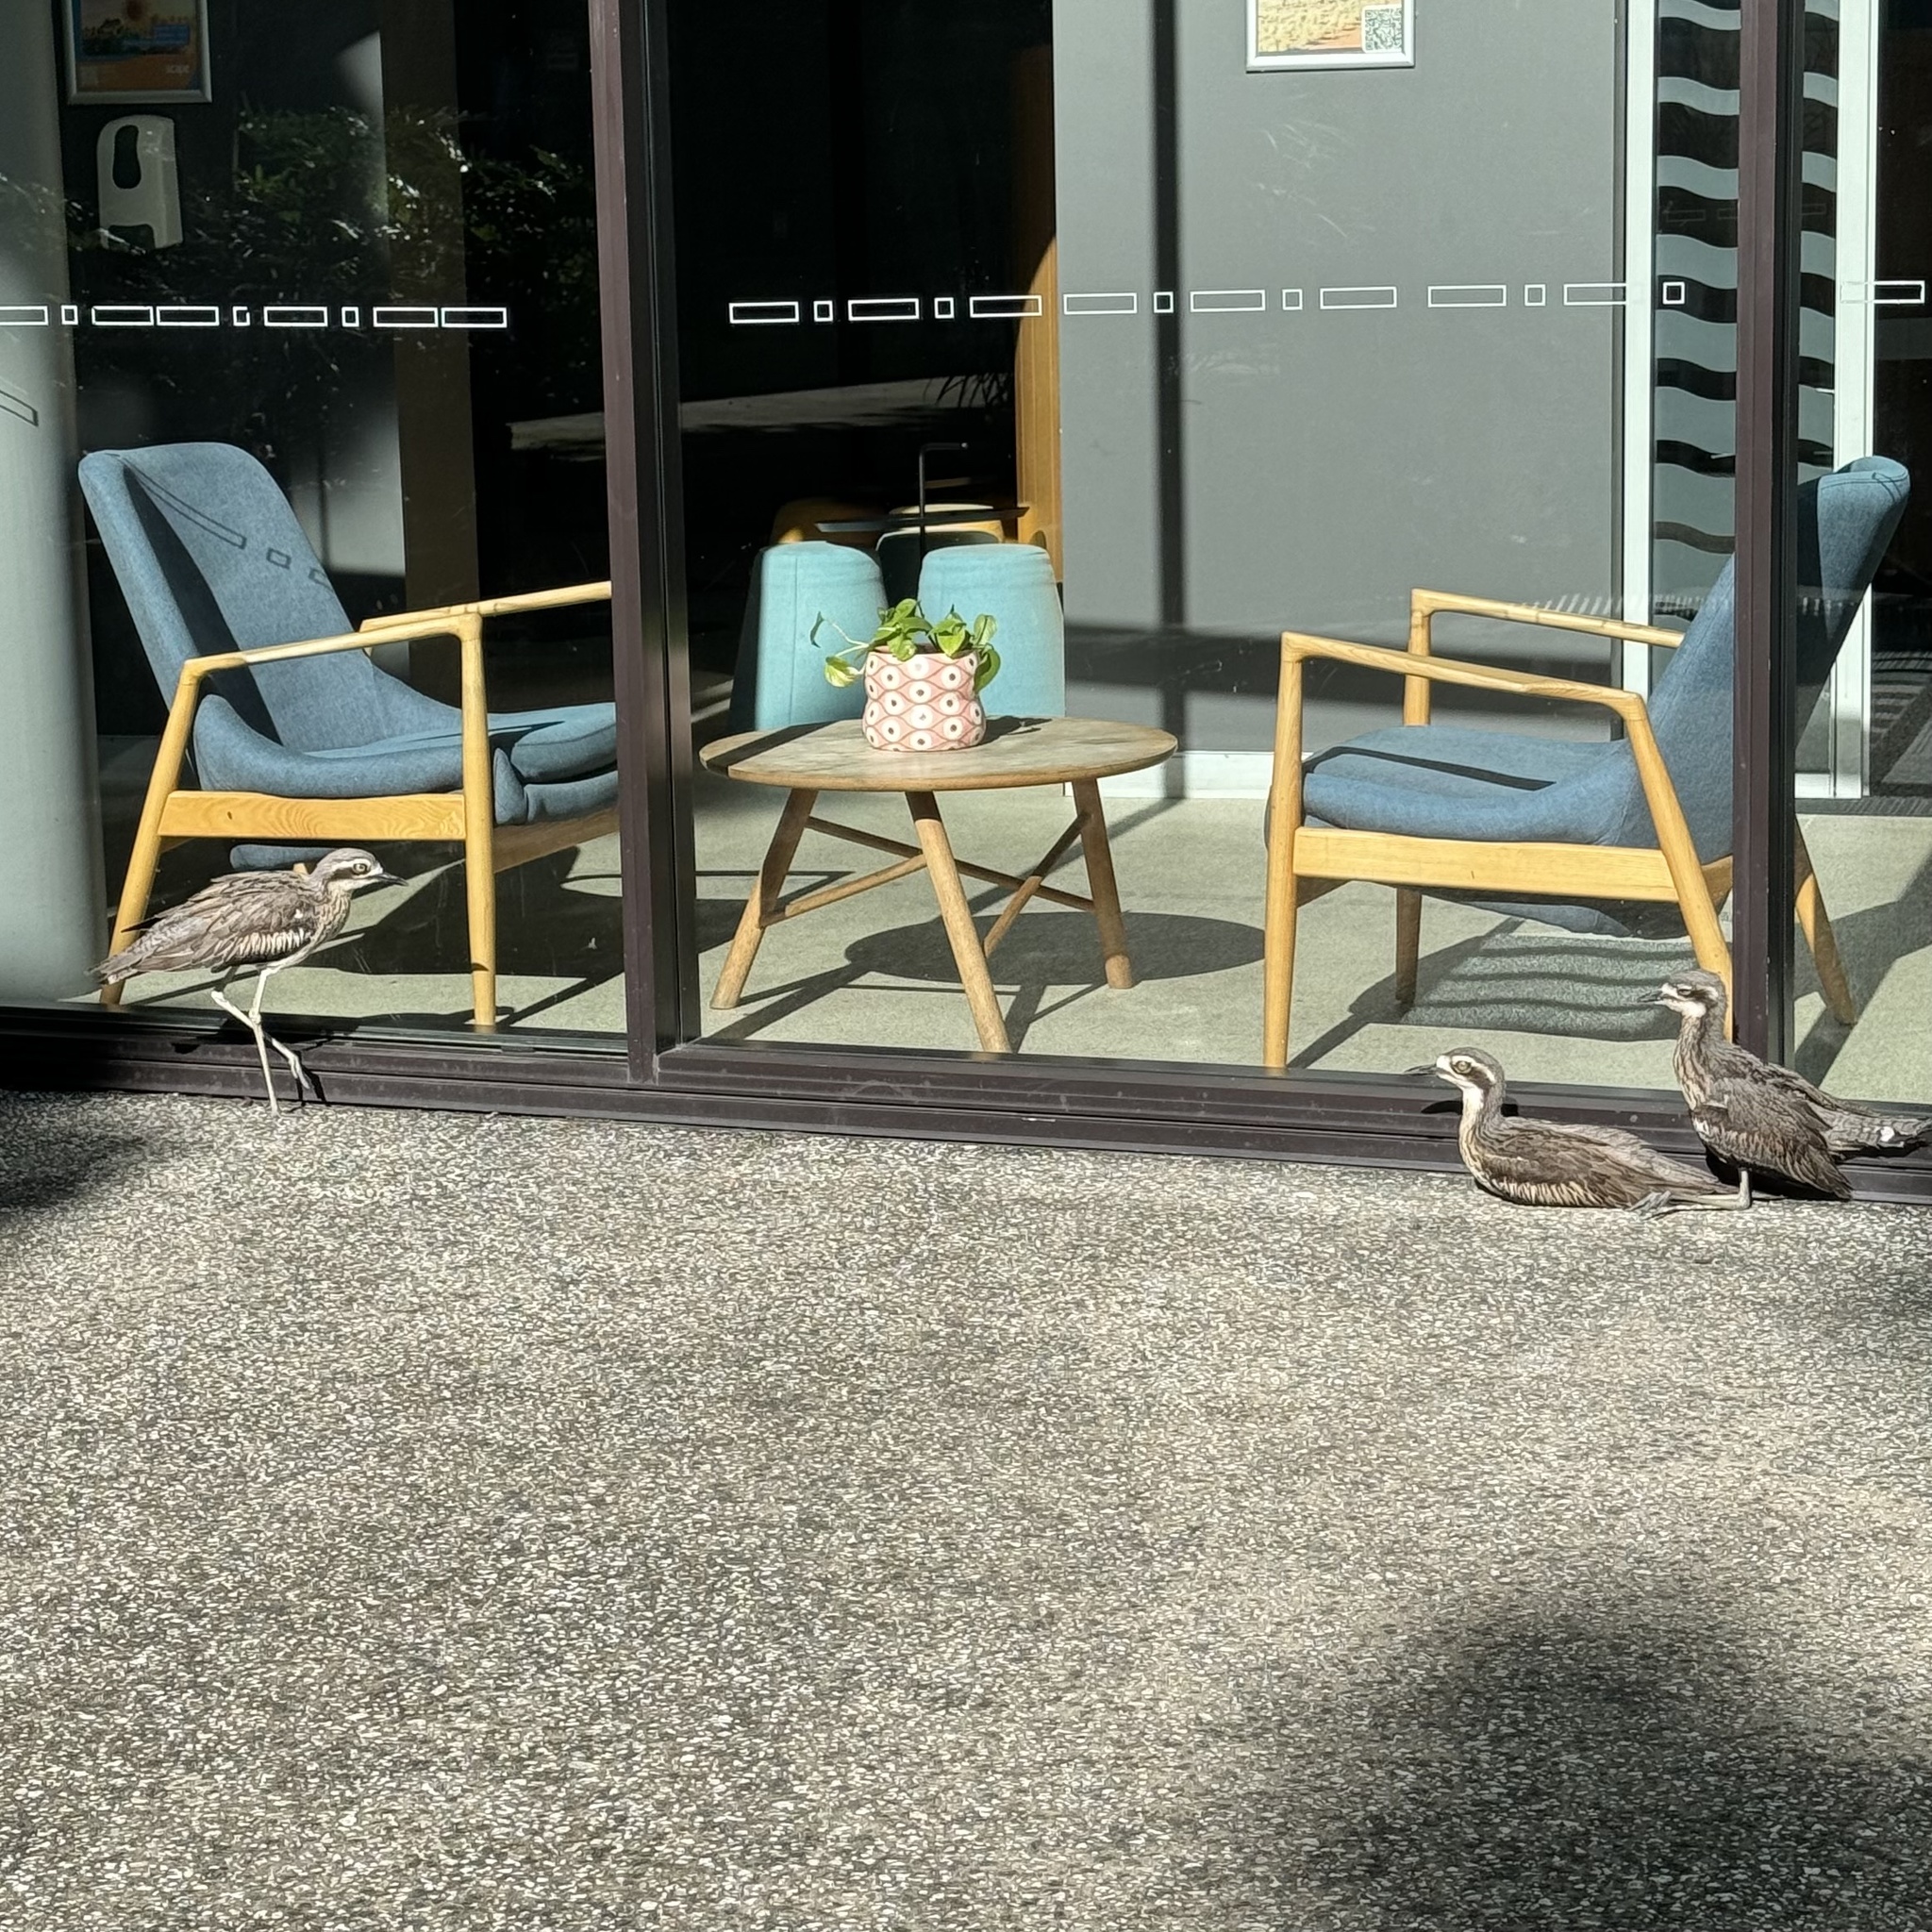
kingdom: Animalia
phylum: Chordata
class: Aves
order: Charadriiformes
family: Burhinidae
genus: Burhinus
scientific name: Burhinus grallarius
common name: Bush stone-curlew
